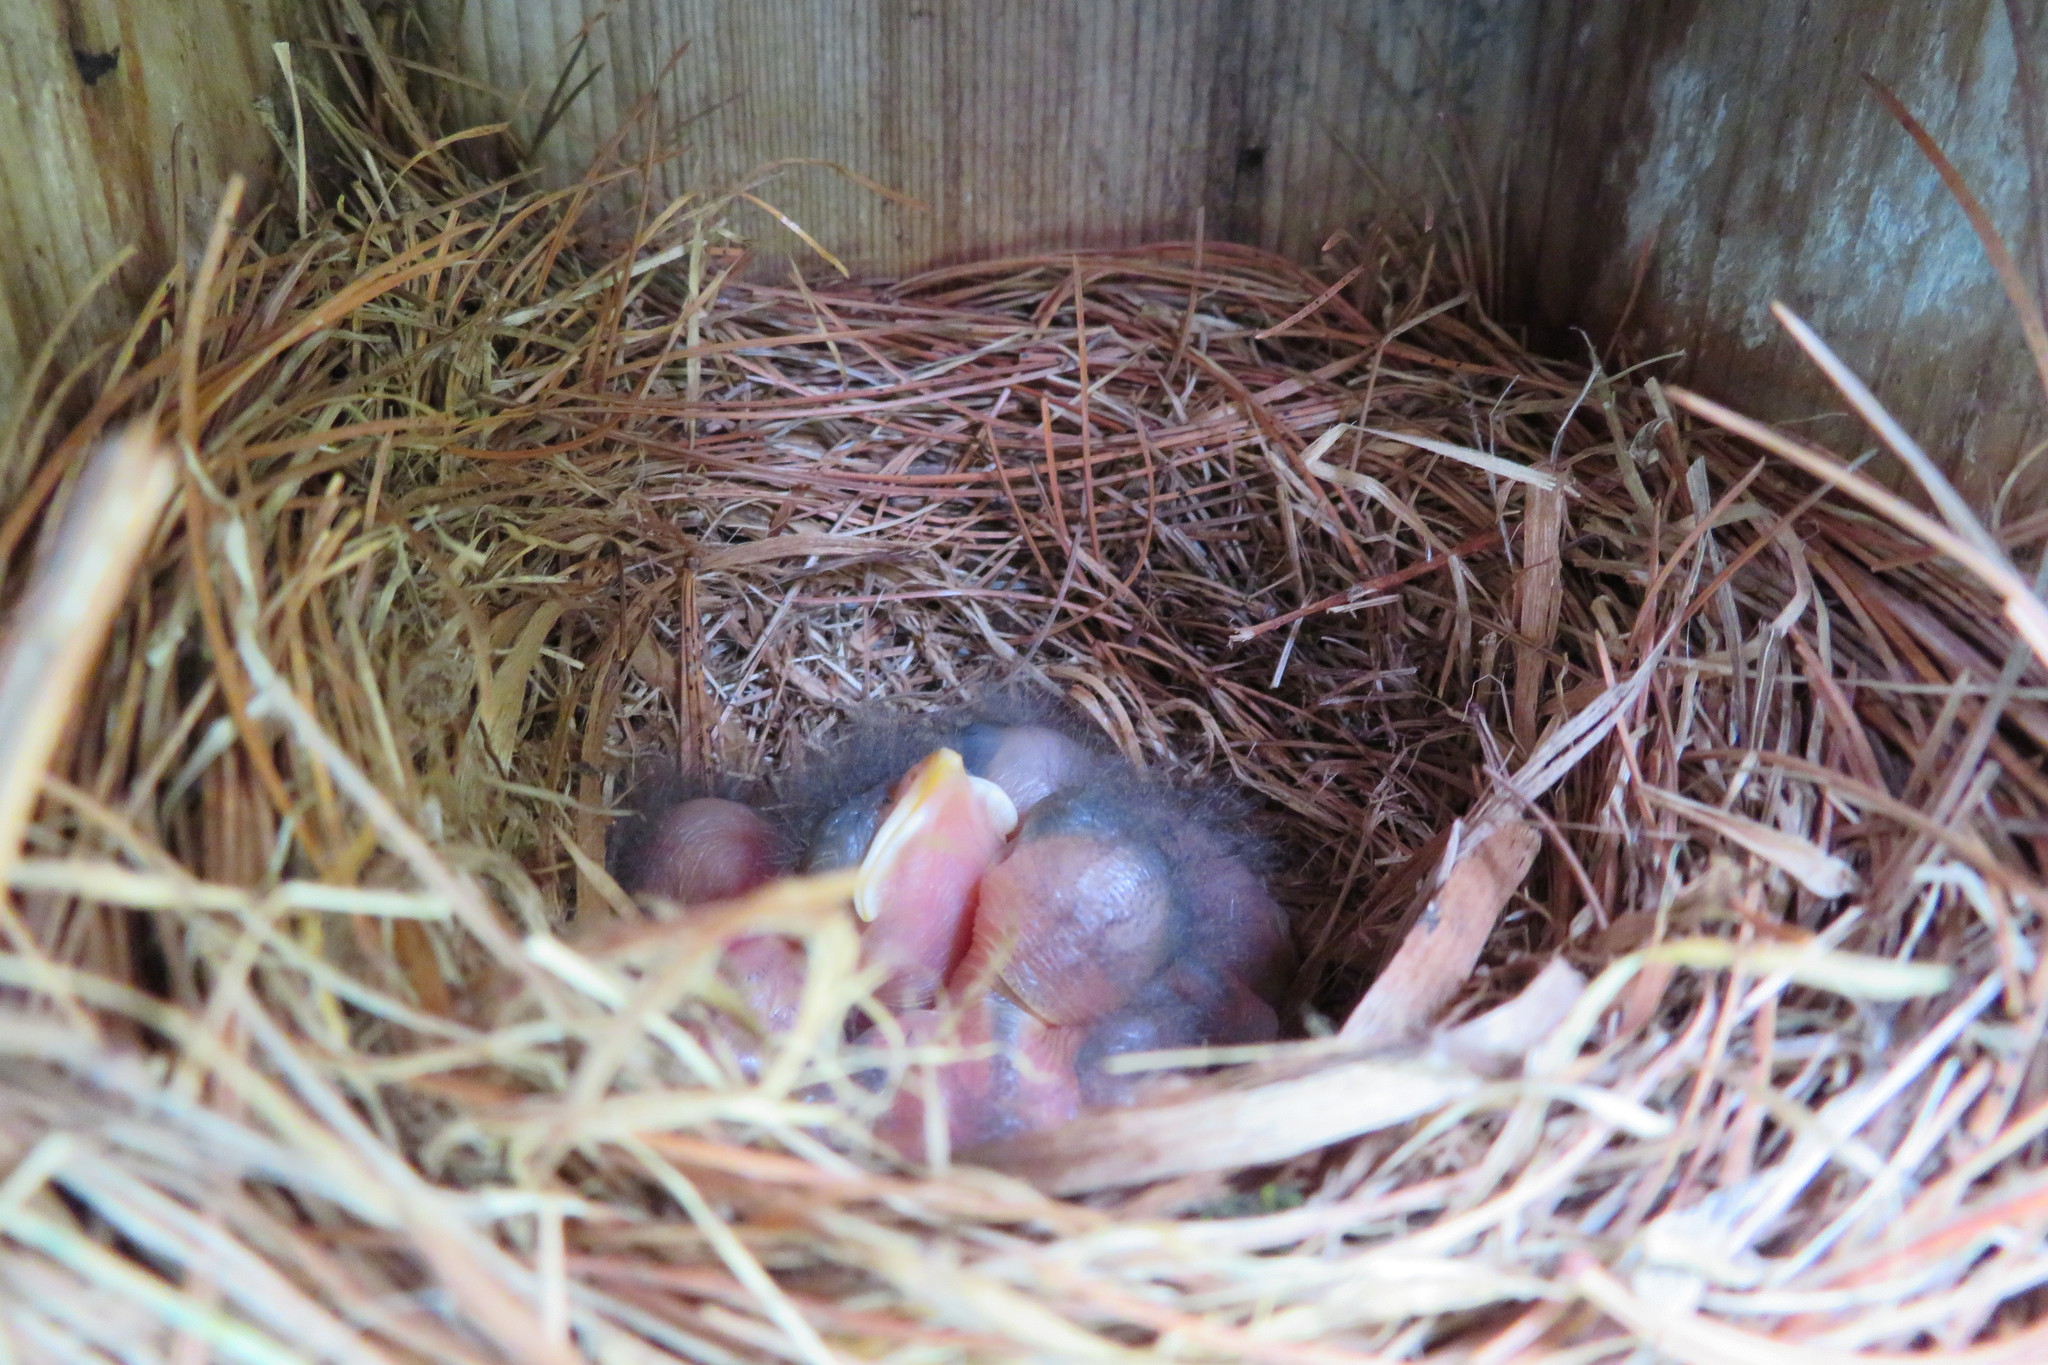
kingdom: Animalia
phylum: Chordata
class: Aves
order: Passeriformes
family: Turdidae
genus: Sialia
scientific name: Sialia sialis
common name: Eastern bluebird
